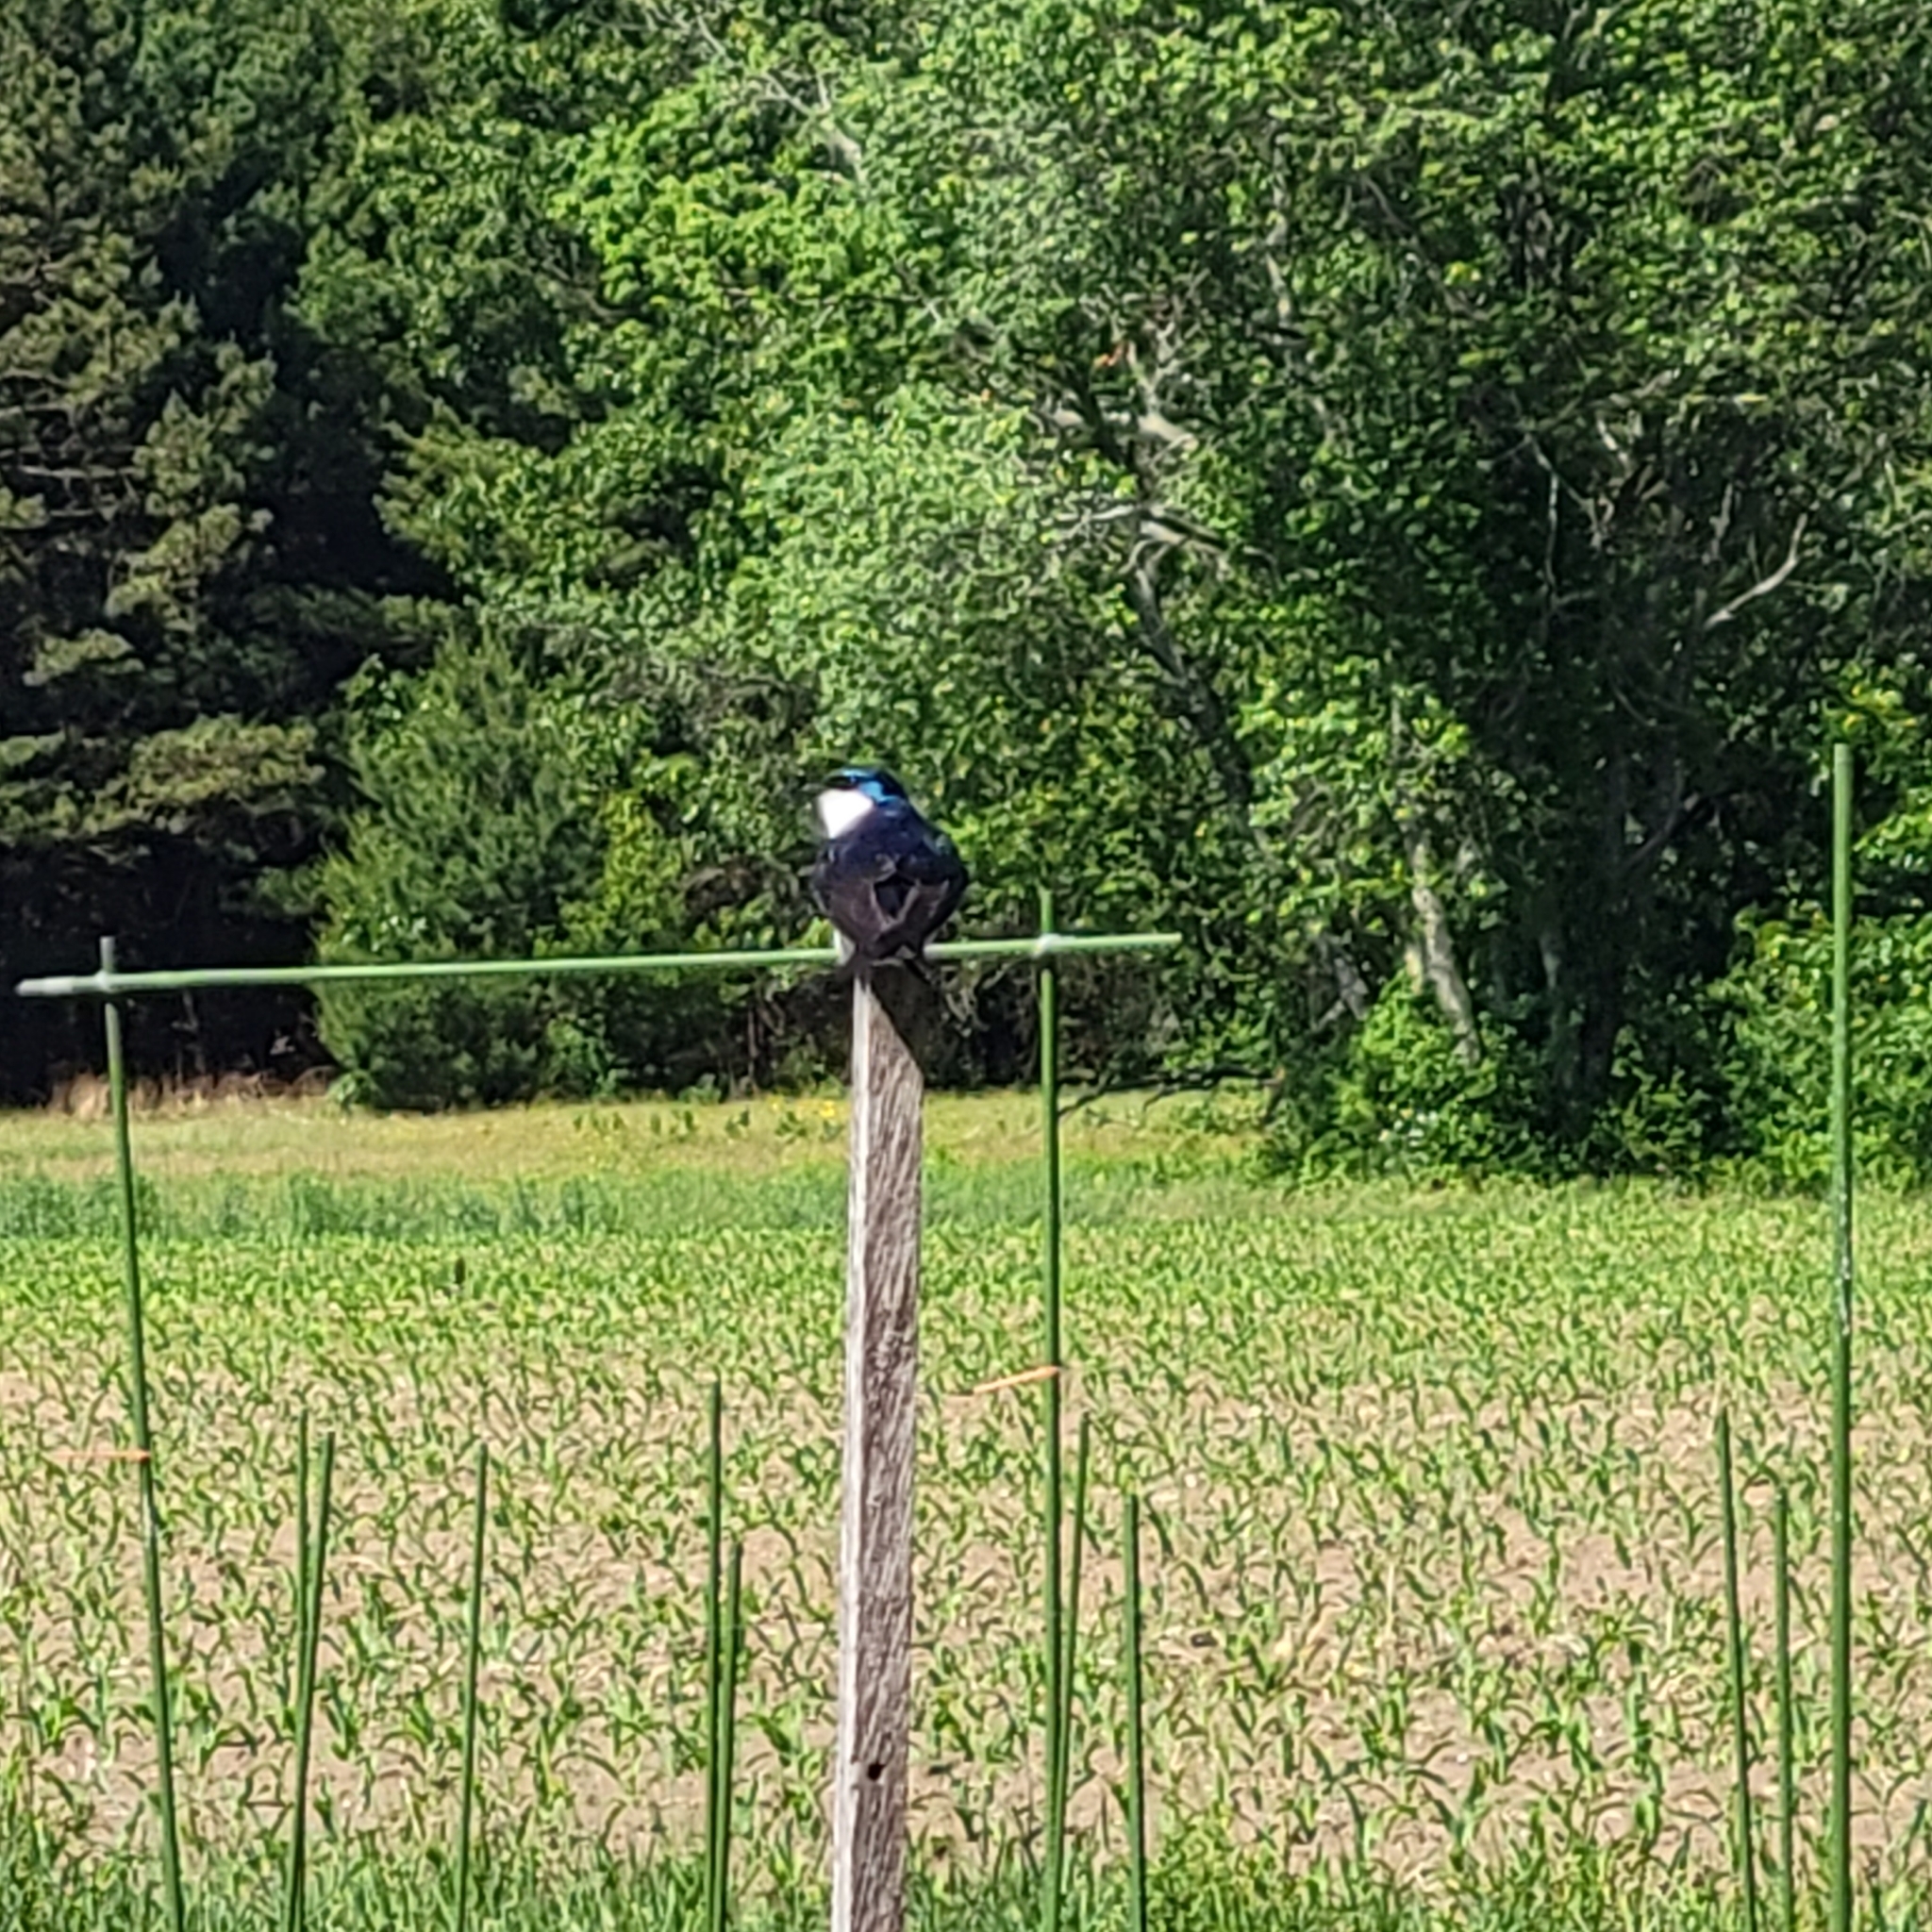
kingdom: Animalia
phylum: Chordata
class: Aves
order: Passeriformes
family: Hirundinidae
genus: Tachycineta
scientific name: Tachycineta bicolor
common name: Tree swallow
